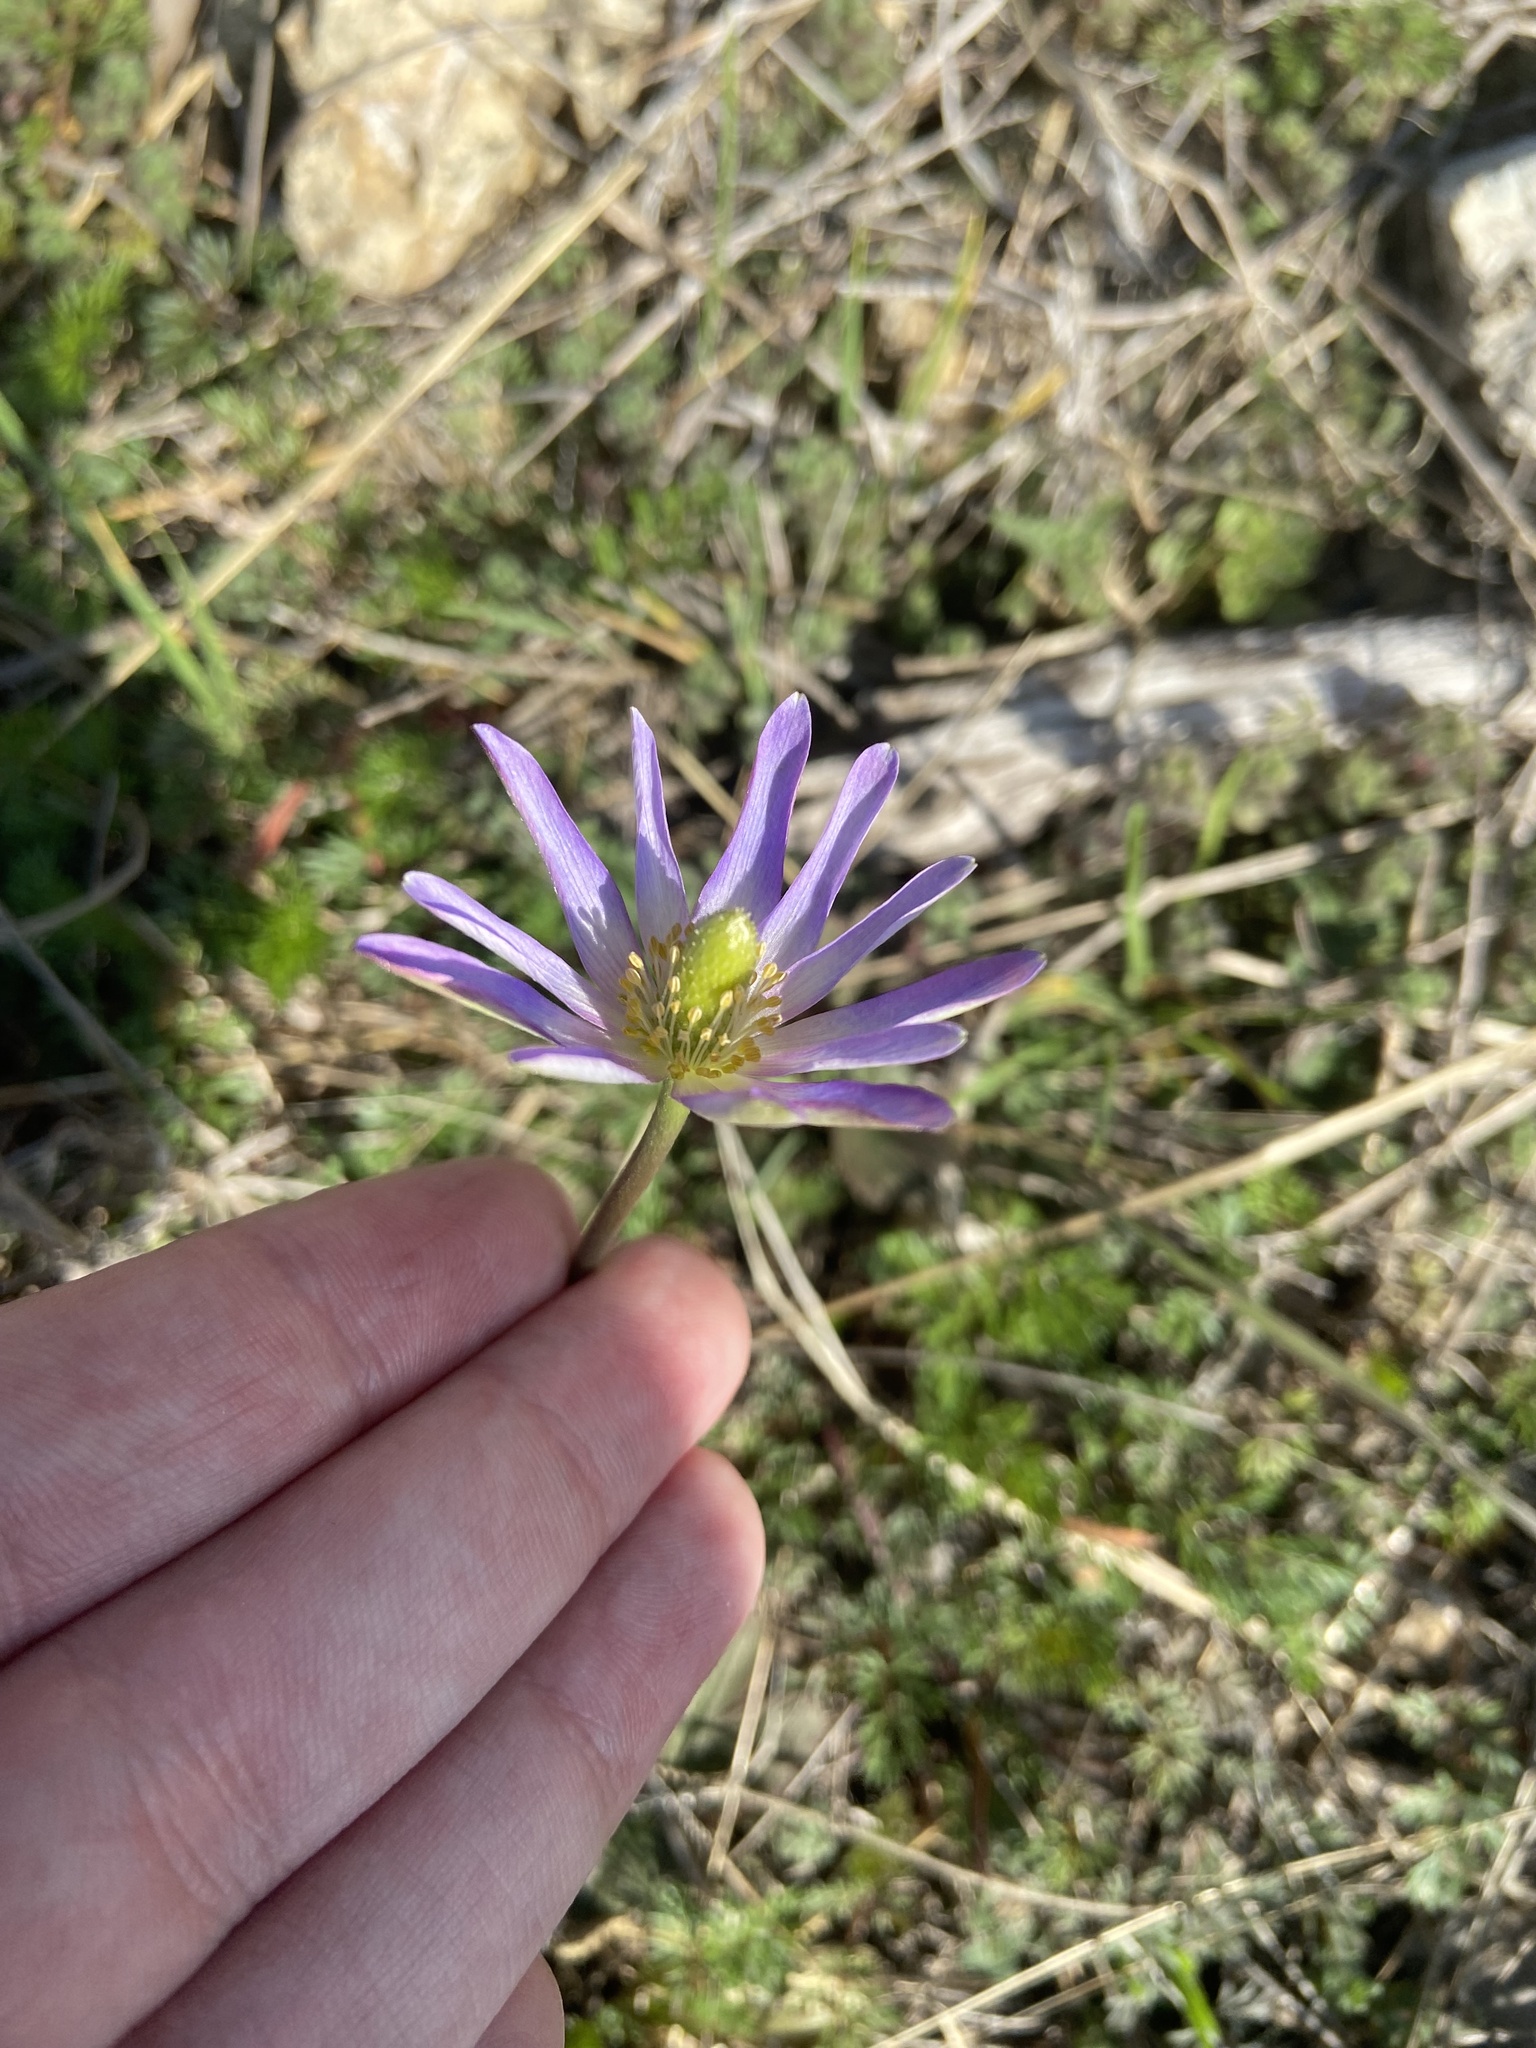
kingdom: Plantae
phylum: Tracheophyta
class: Magnoliopsida
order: Ranunculales
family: Ranunculaceae
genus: Anemone
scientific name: Anemone berlandieri
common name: Ten-petal anemone
